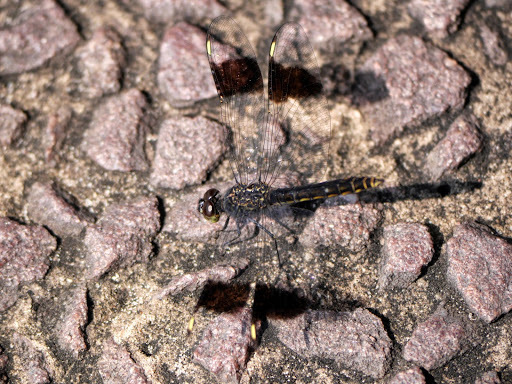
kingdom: Animalia
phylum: Arthropoda
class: Insecta
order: Odonata
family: Libellulidae
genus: Brachythemis
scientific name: Brachythemis leucosticta
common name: Banded groundling
